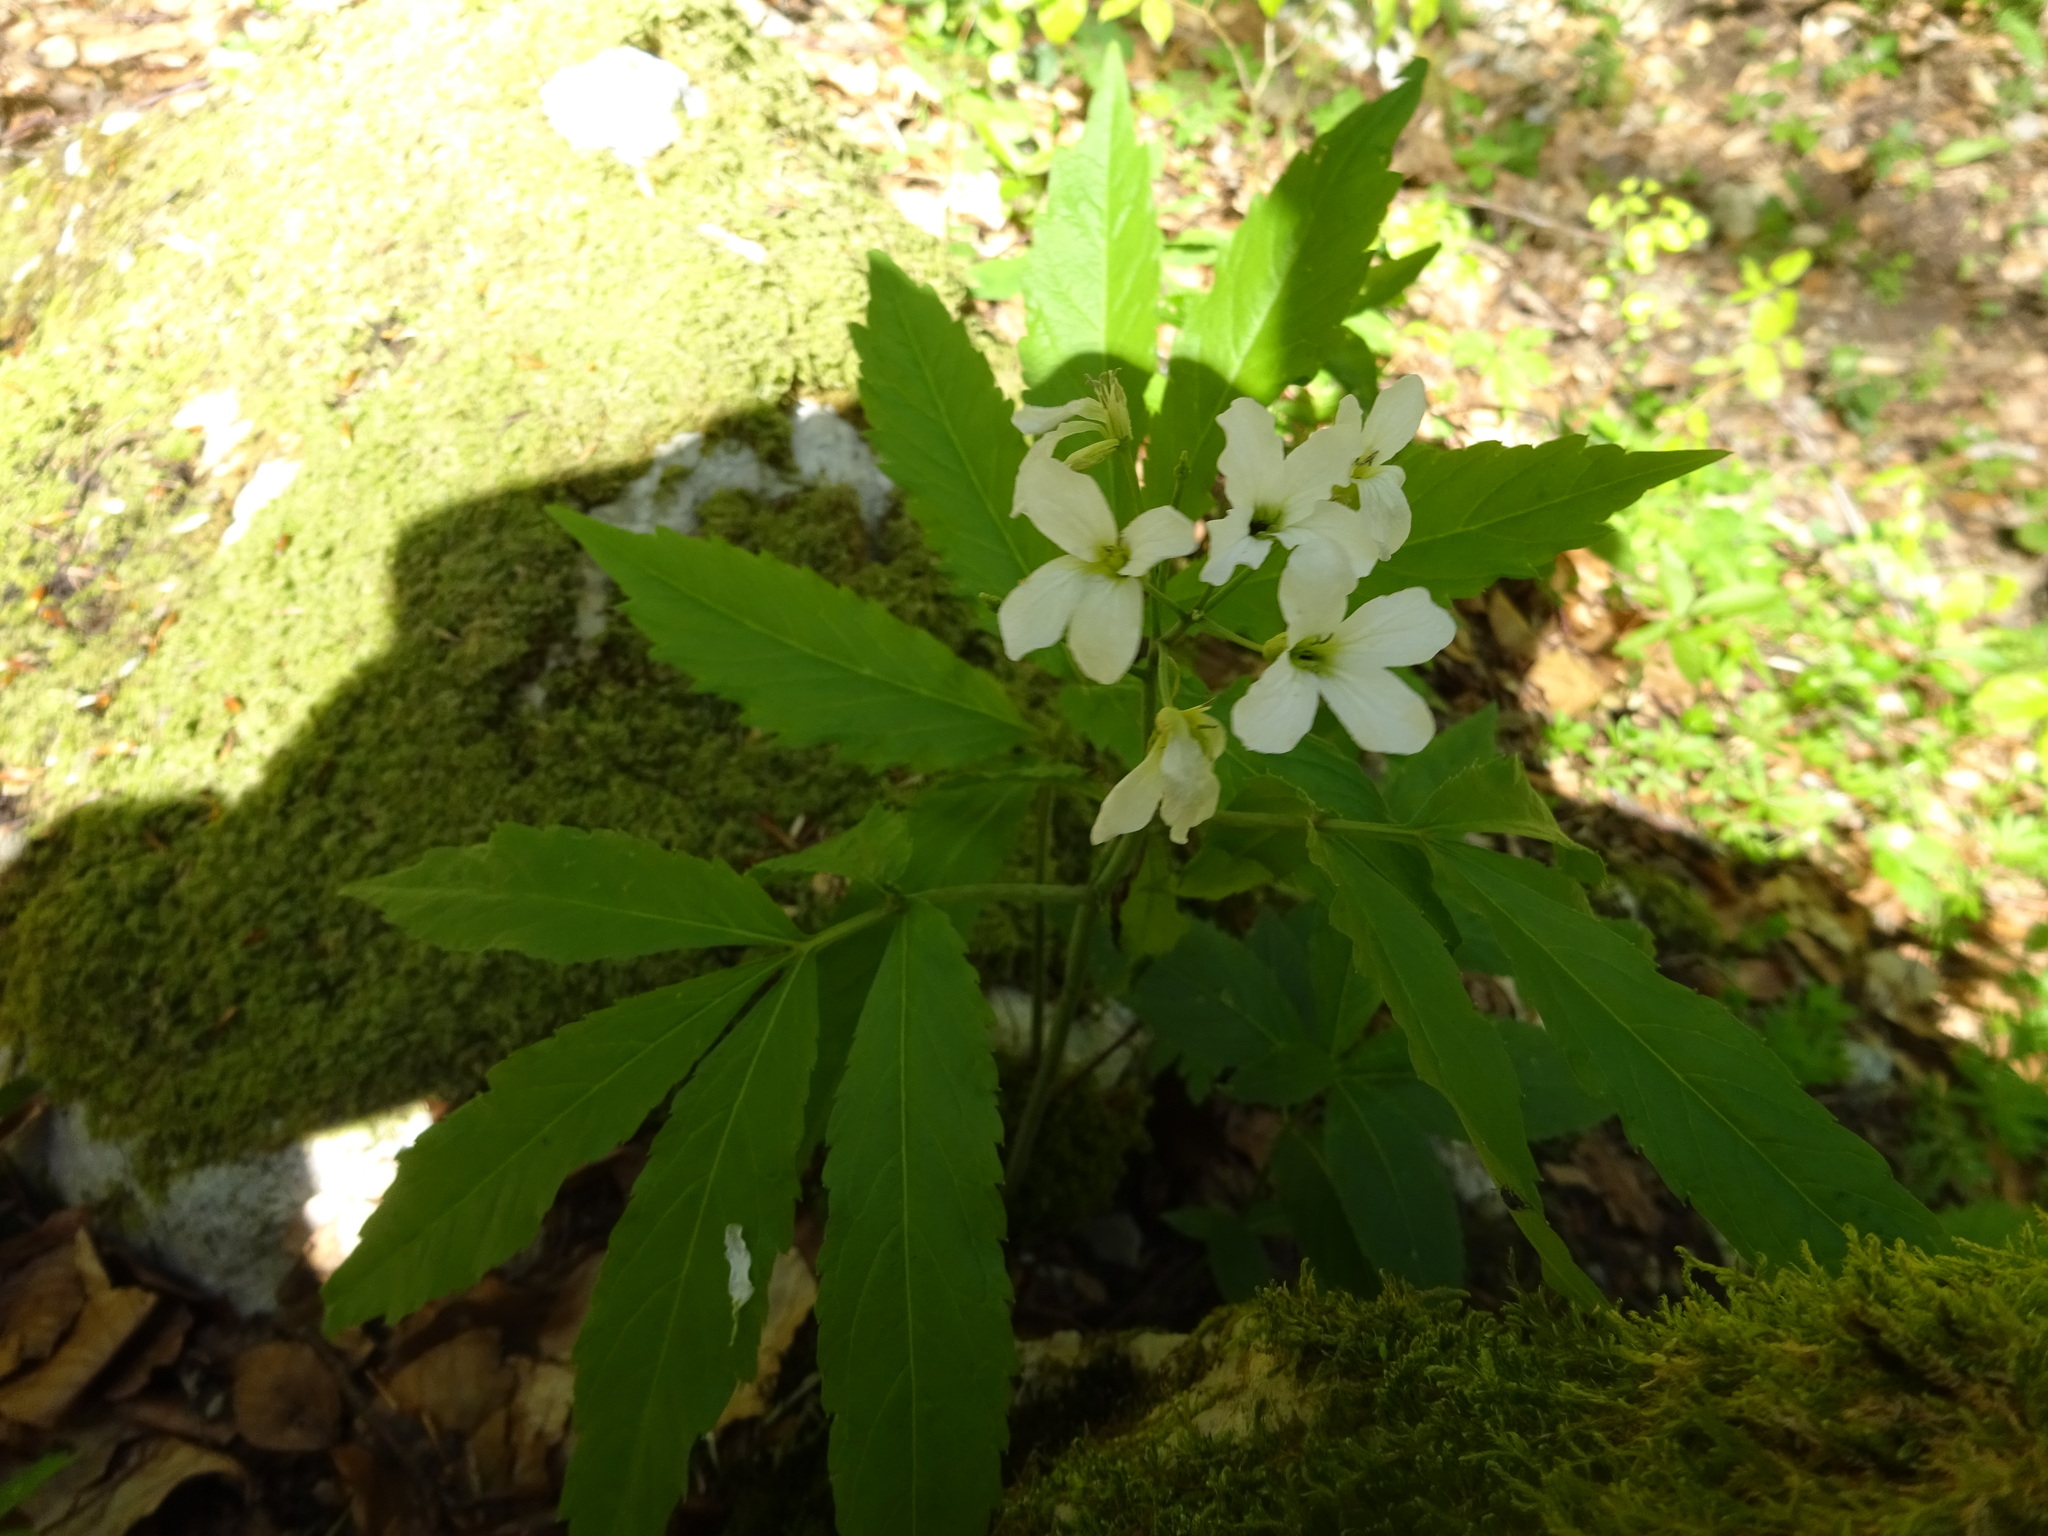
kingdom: Plantae
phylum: Tracheophyta
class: Magnoliopsida
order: Brassicales
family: Brassicaceae
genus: Cardamine
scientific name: Cardamine heptaphylla
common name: Pinnate coralroot
